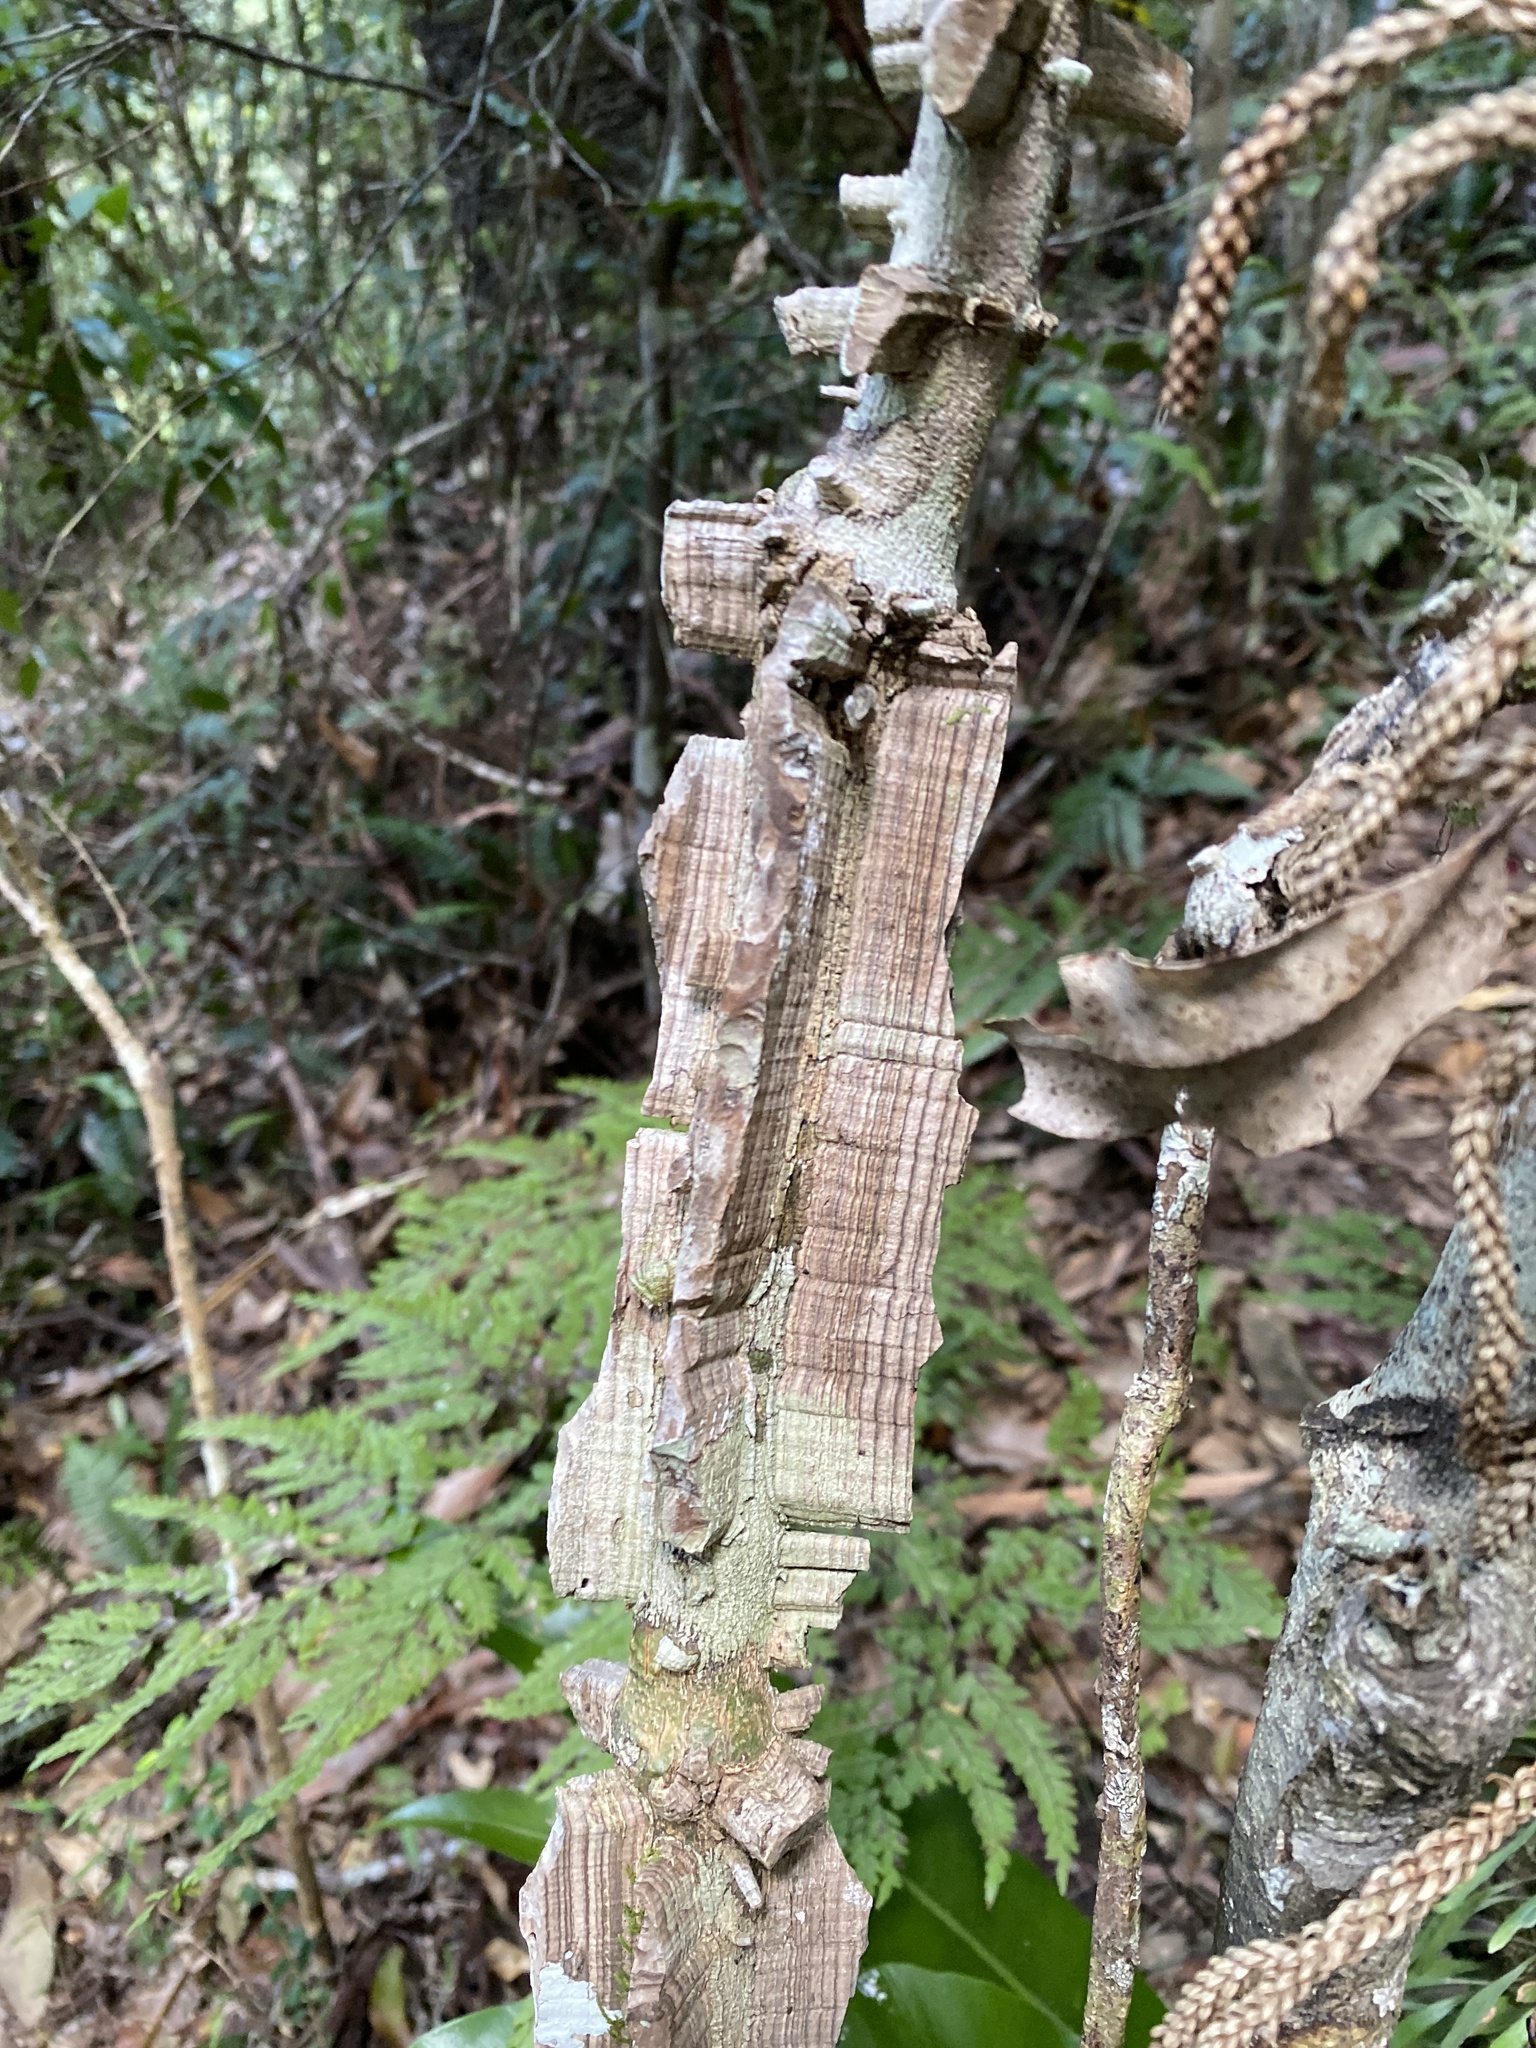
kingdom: Plantae
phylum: Tracheophyta
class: Magnoliopsida
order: Fabales
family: Fabaceae
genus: Mezoneuron
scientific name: Mezoneuron brachycarpum
